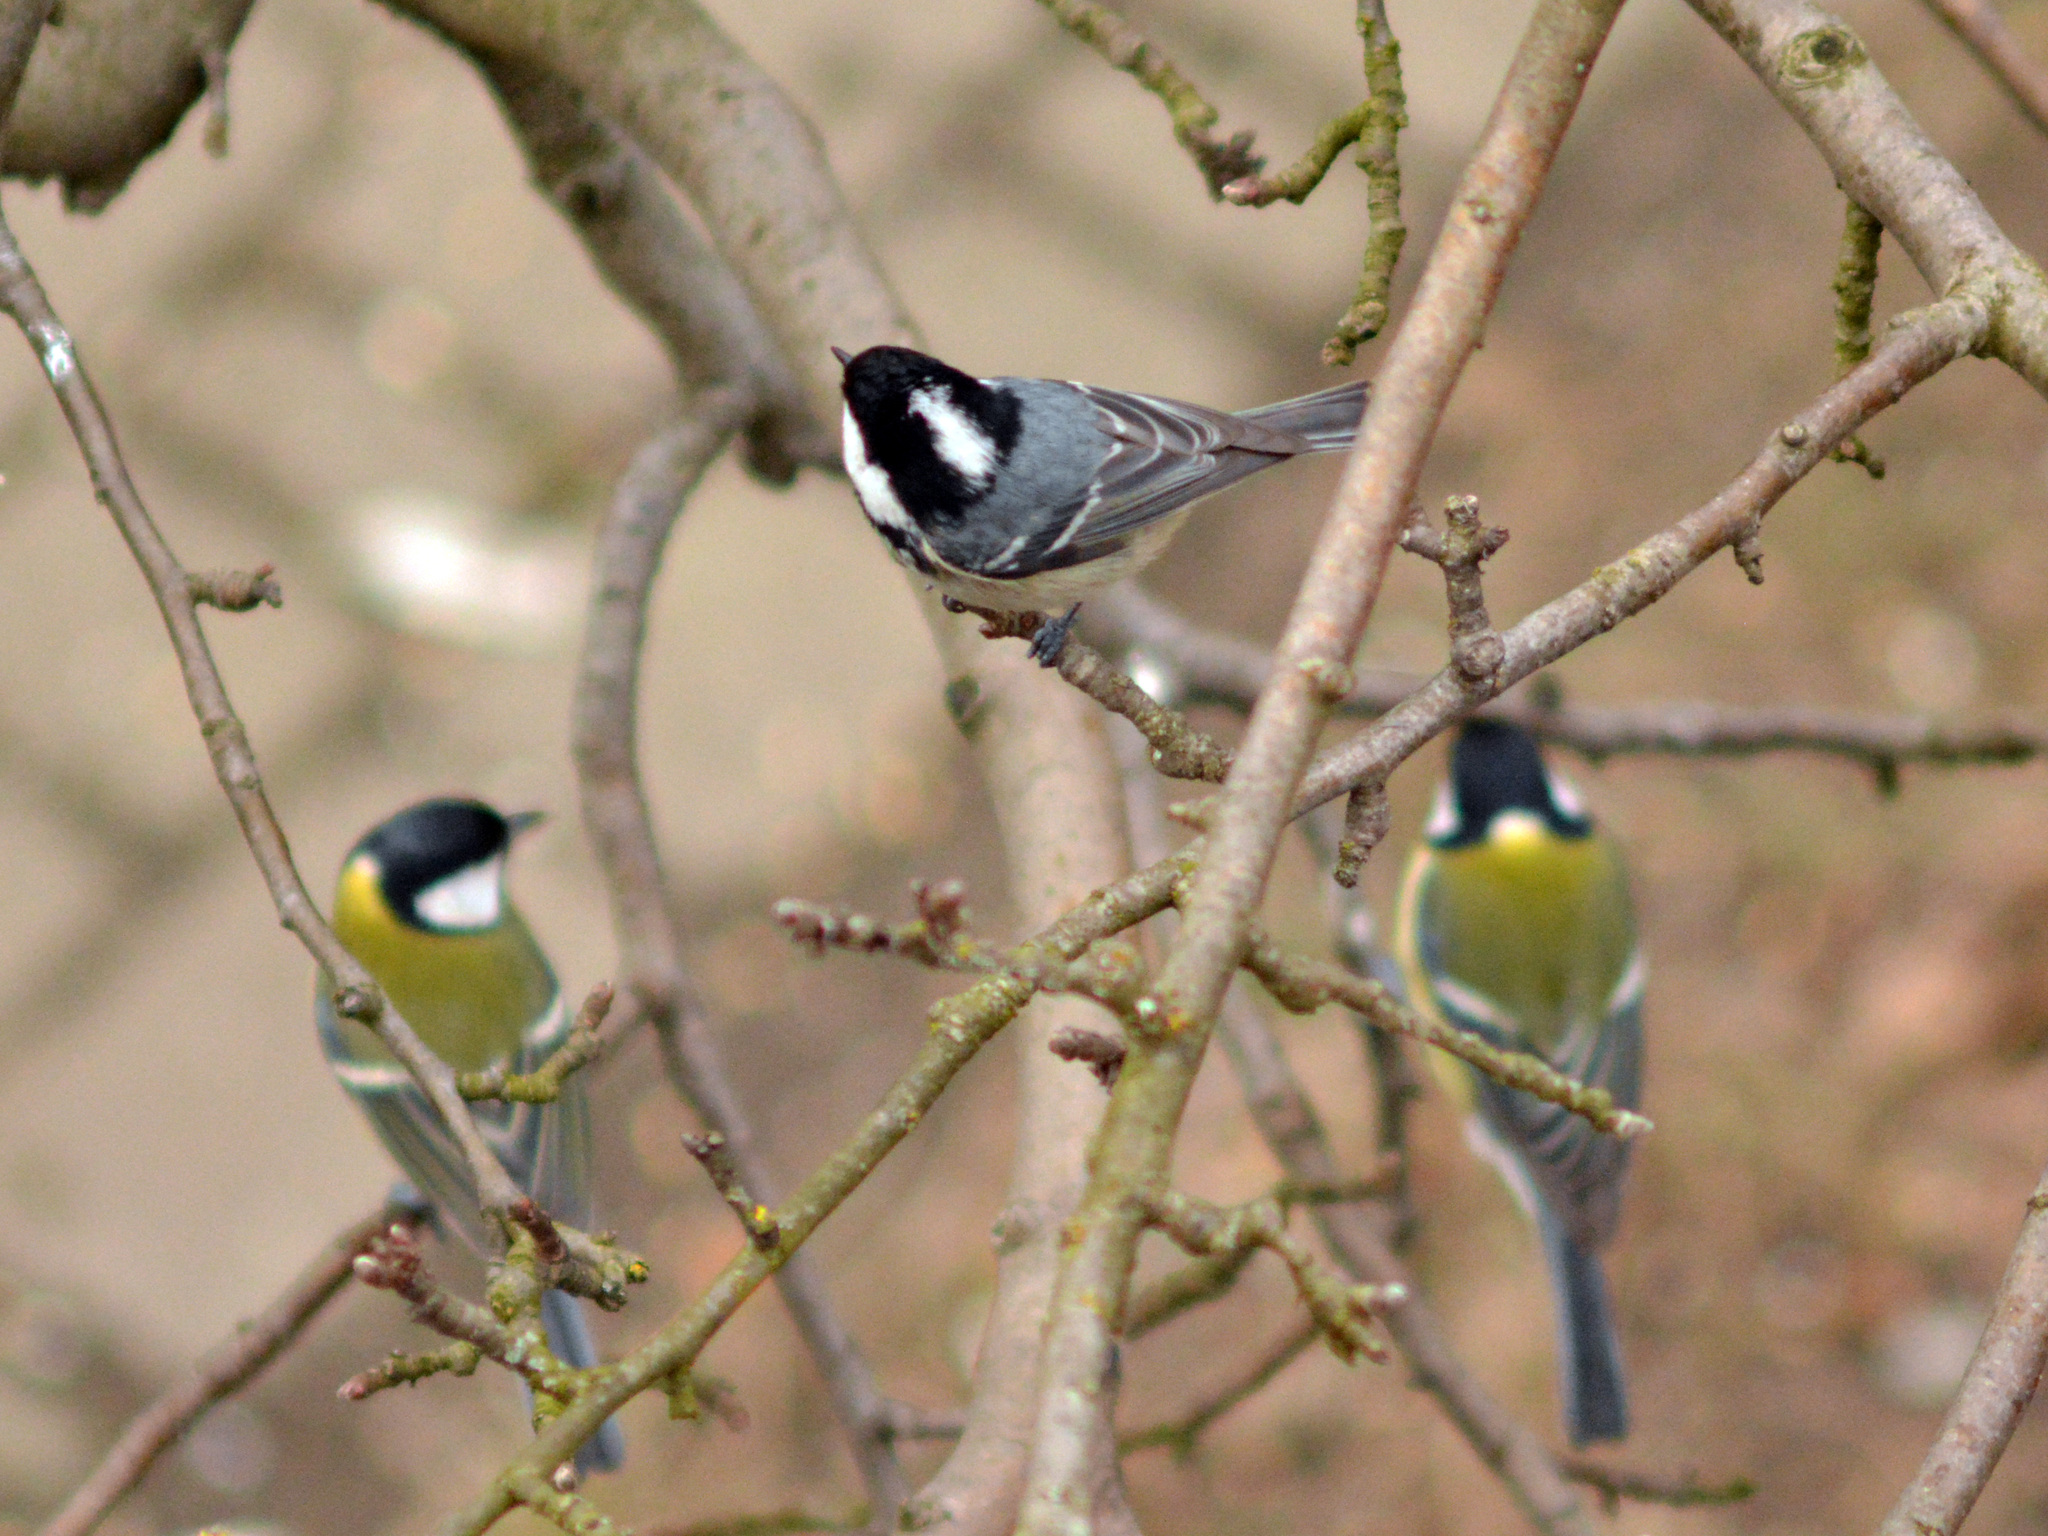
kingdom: Animalia
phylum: Chordata
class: Aves
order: Passeriformes
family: Paridae
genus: Periparus
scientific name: Periparus ater
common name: Coal tit
